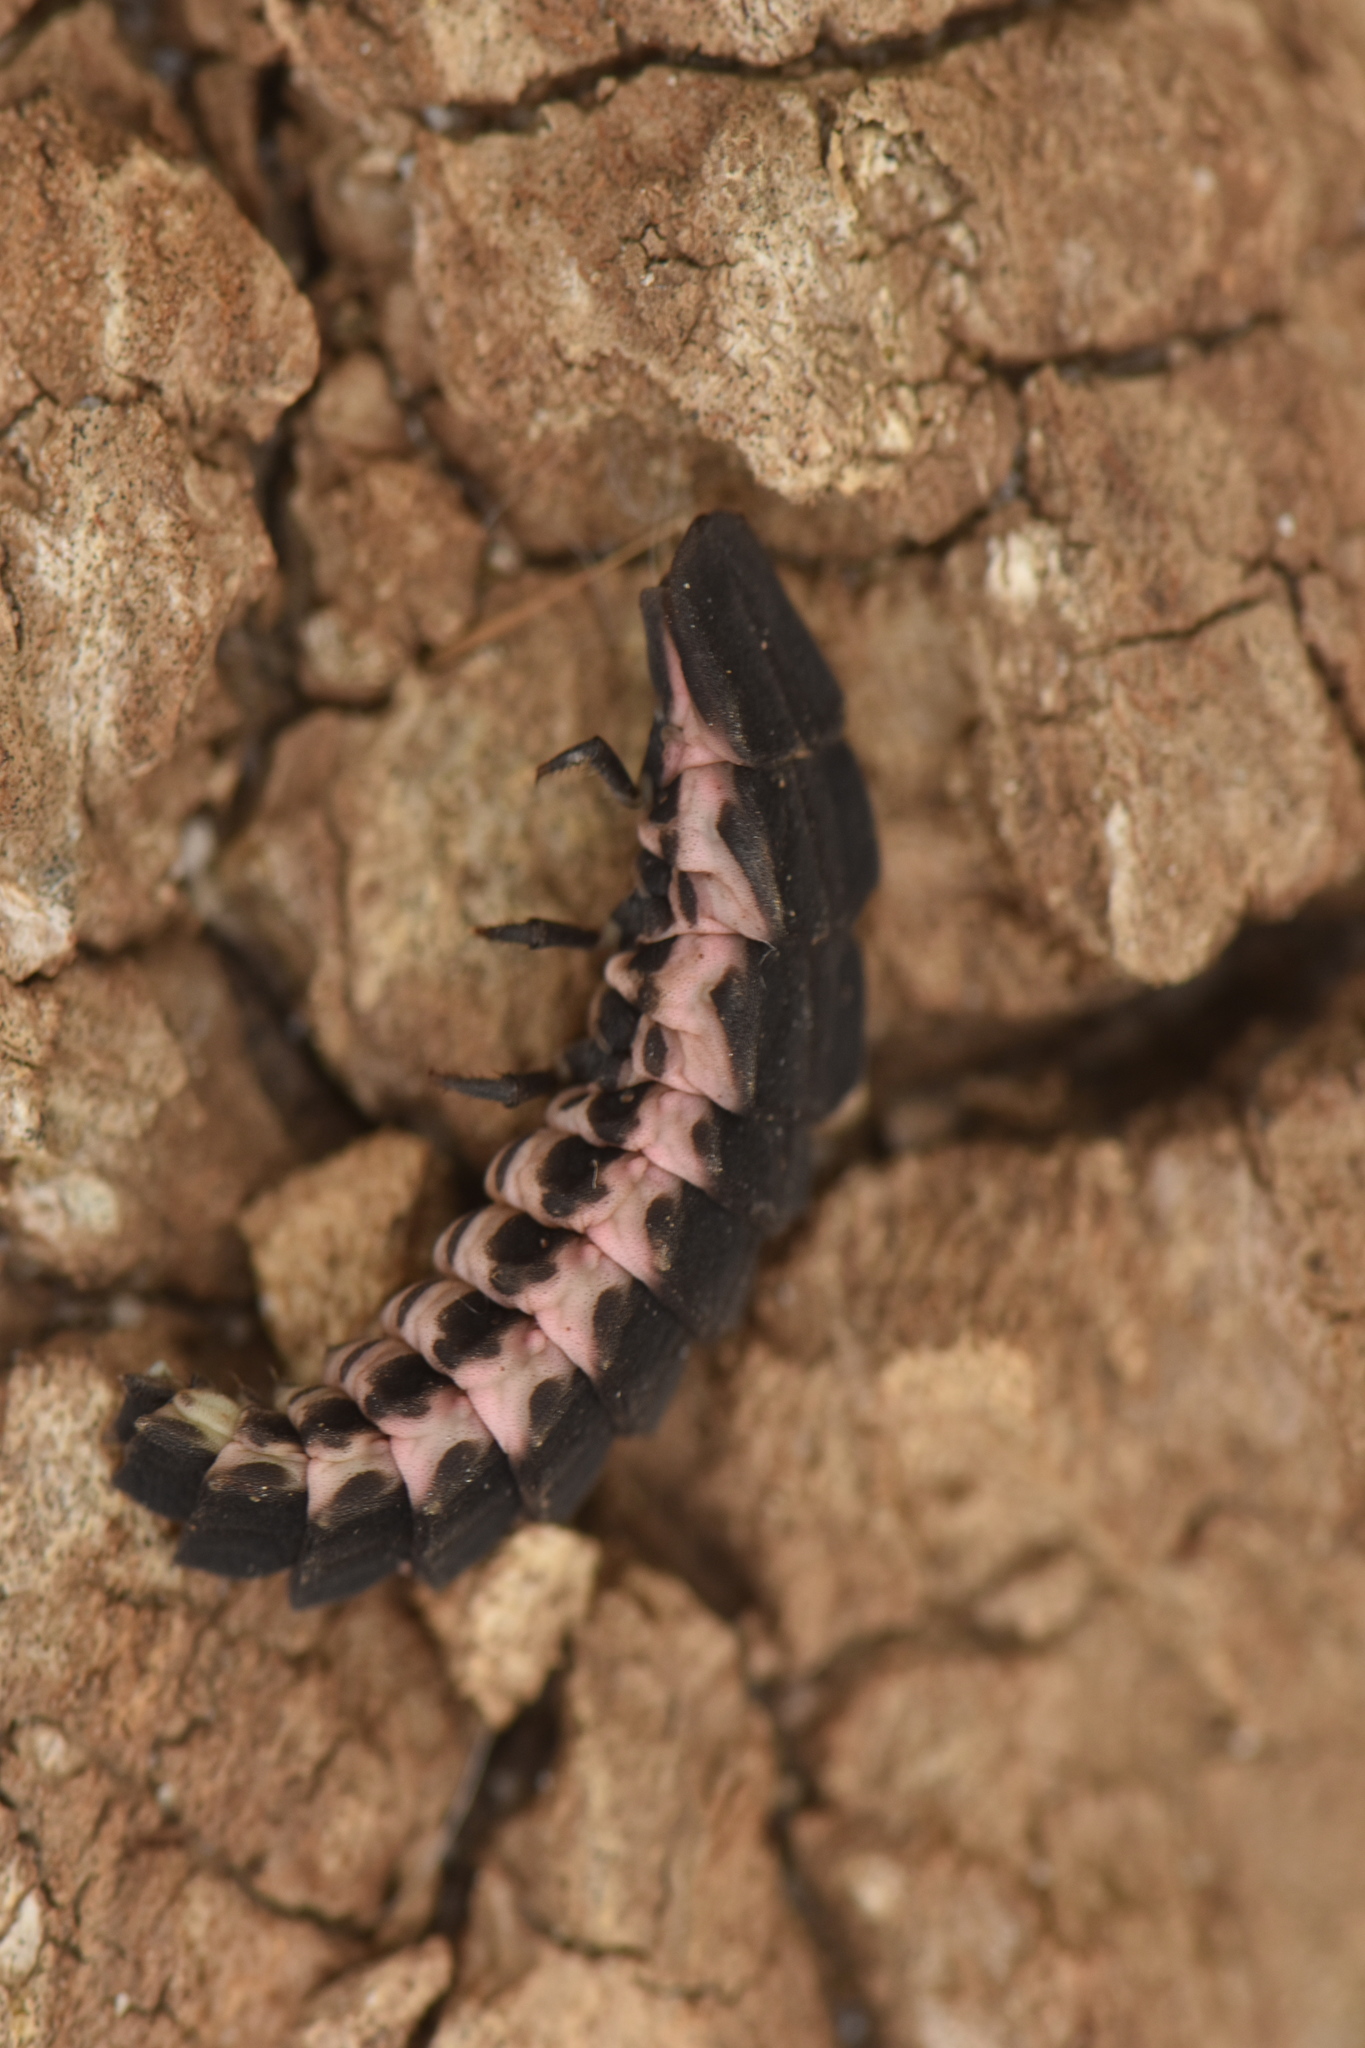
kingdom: Animalia
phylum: Arthropoda
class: Insecta
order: Coleoptera
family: Lampyridae
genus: Nyctophila
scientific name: Nyctophila reichii
